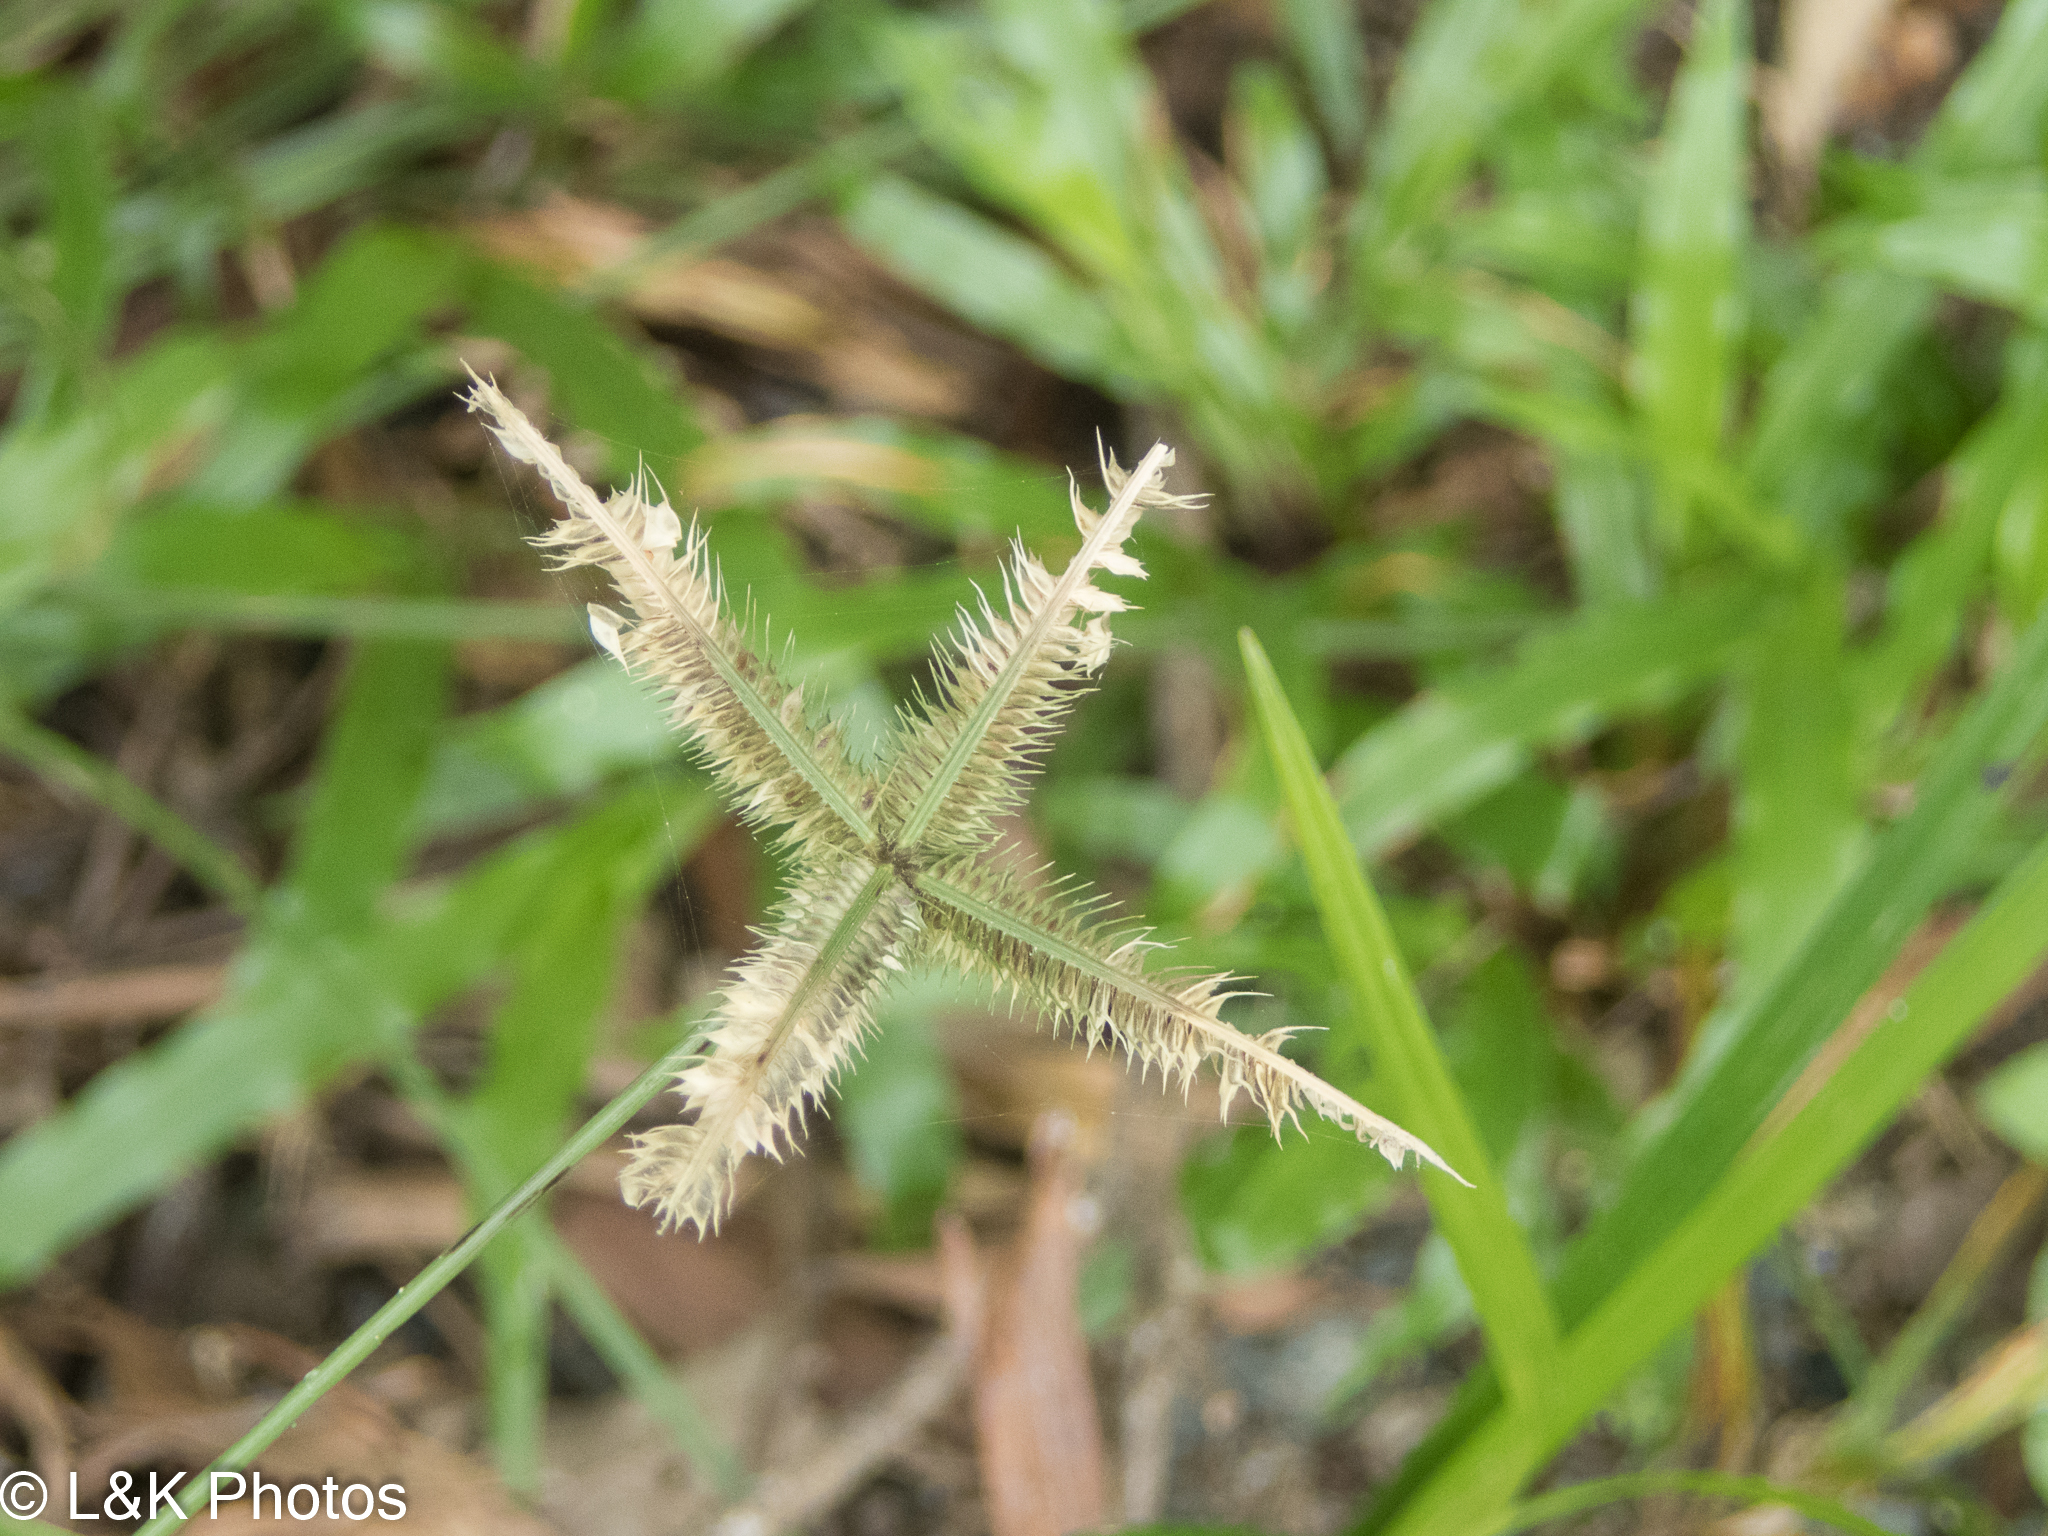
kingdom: Plantae
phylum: Tracheophyta
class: Liliopsida
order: Poales
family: Poaceae
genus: Dactyloctenium
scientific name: Dactyloctenium aegyptium
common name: Egyptian grass
